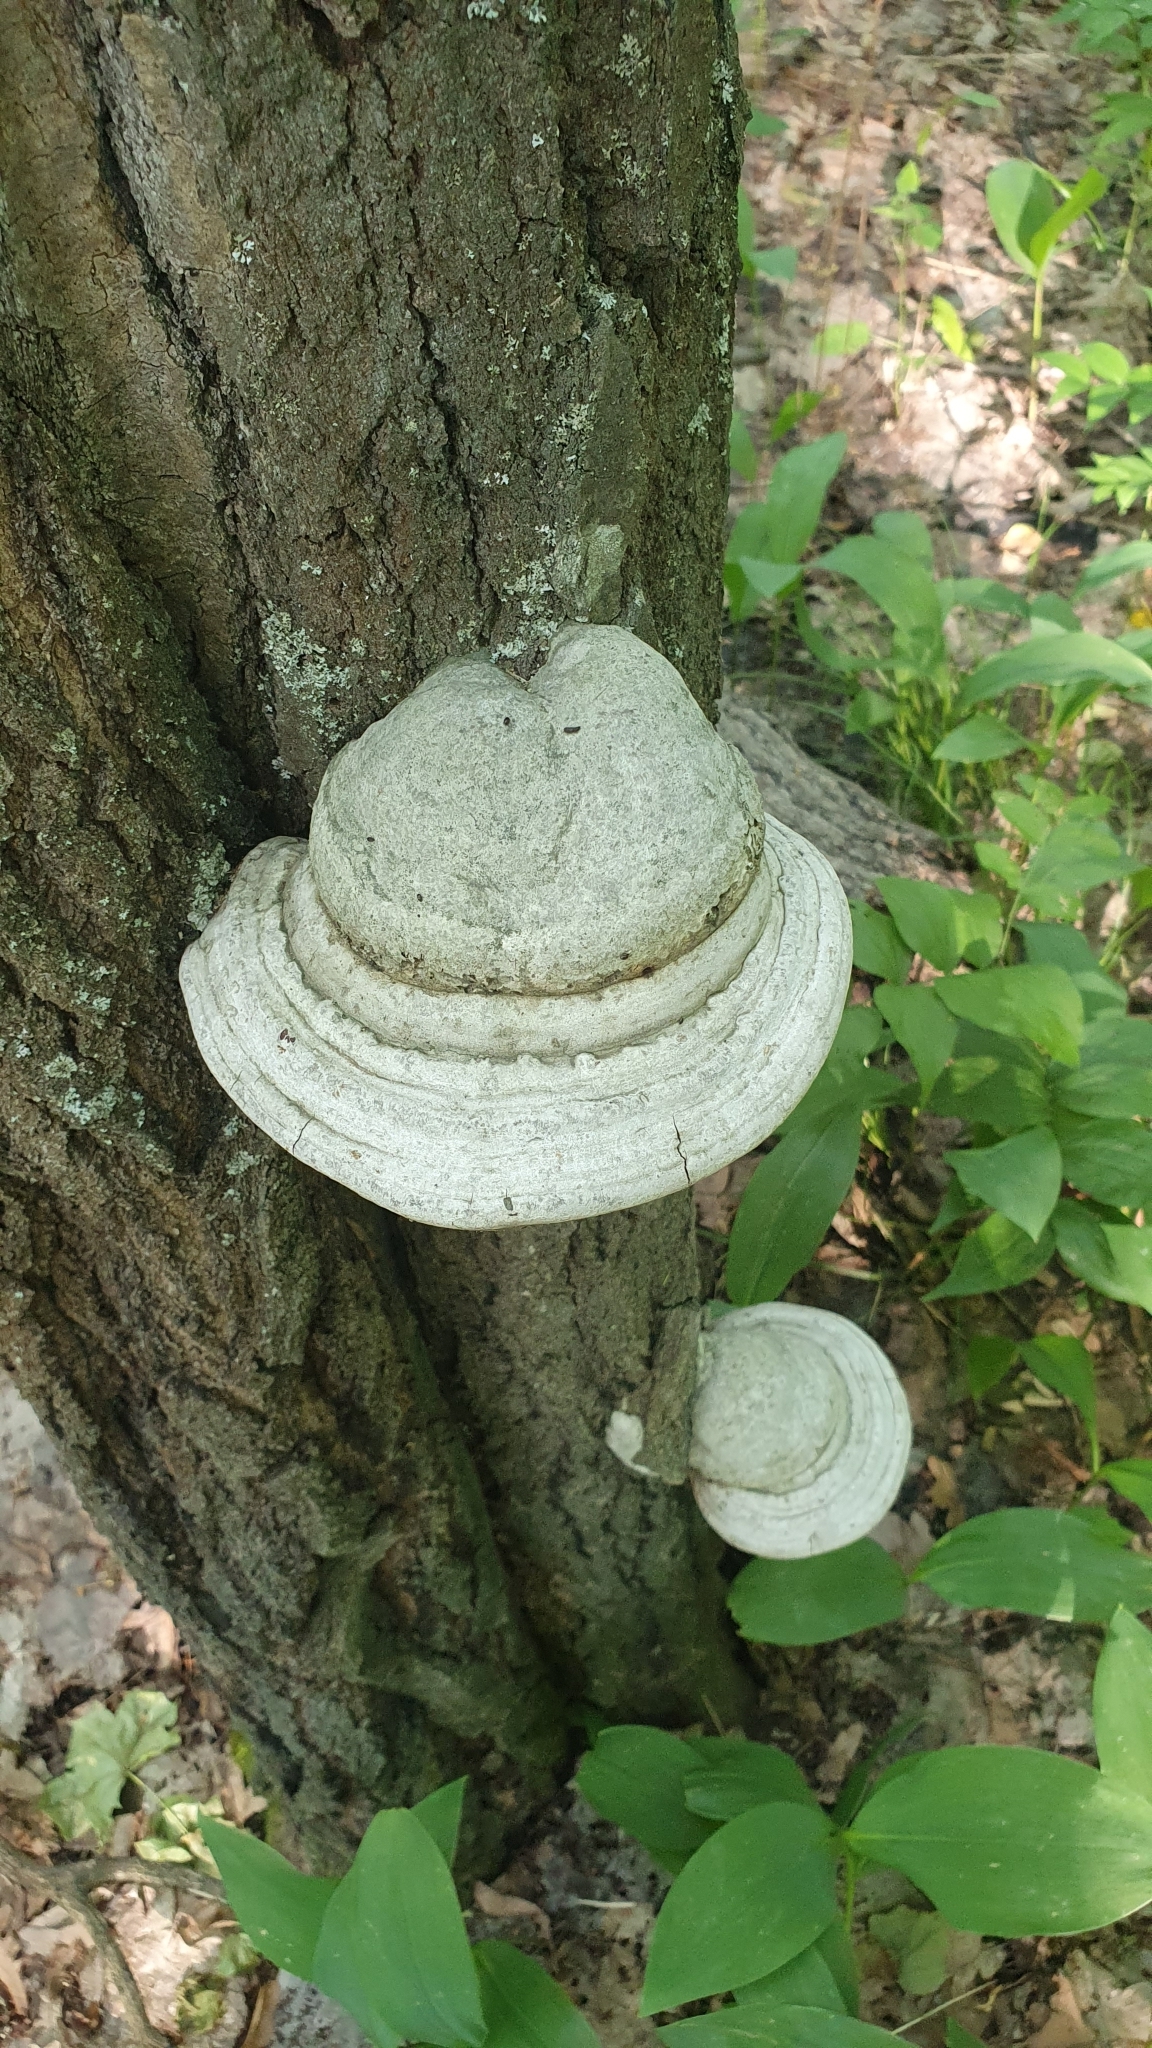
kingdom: Fungi
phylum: Basidiomycota
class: Agaricomycetes
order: Polyporales
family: Polyporaceae
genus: Fomes
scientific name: Fomes fomentarius
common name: Hoof fungus
